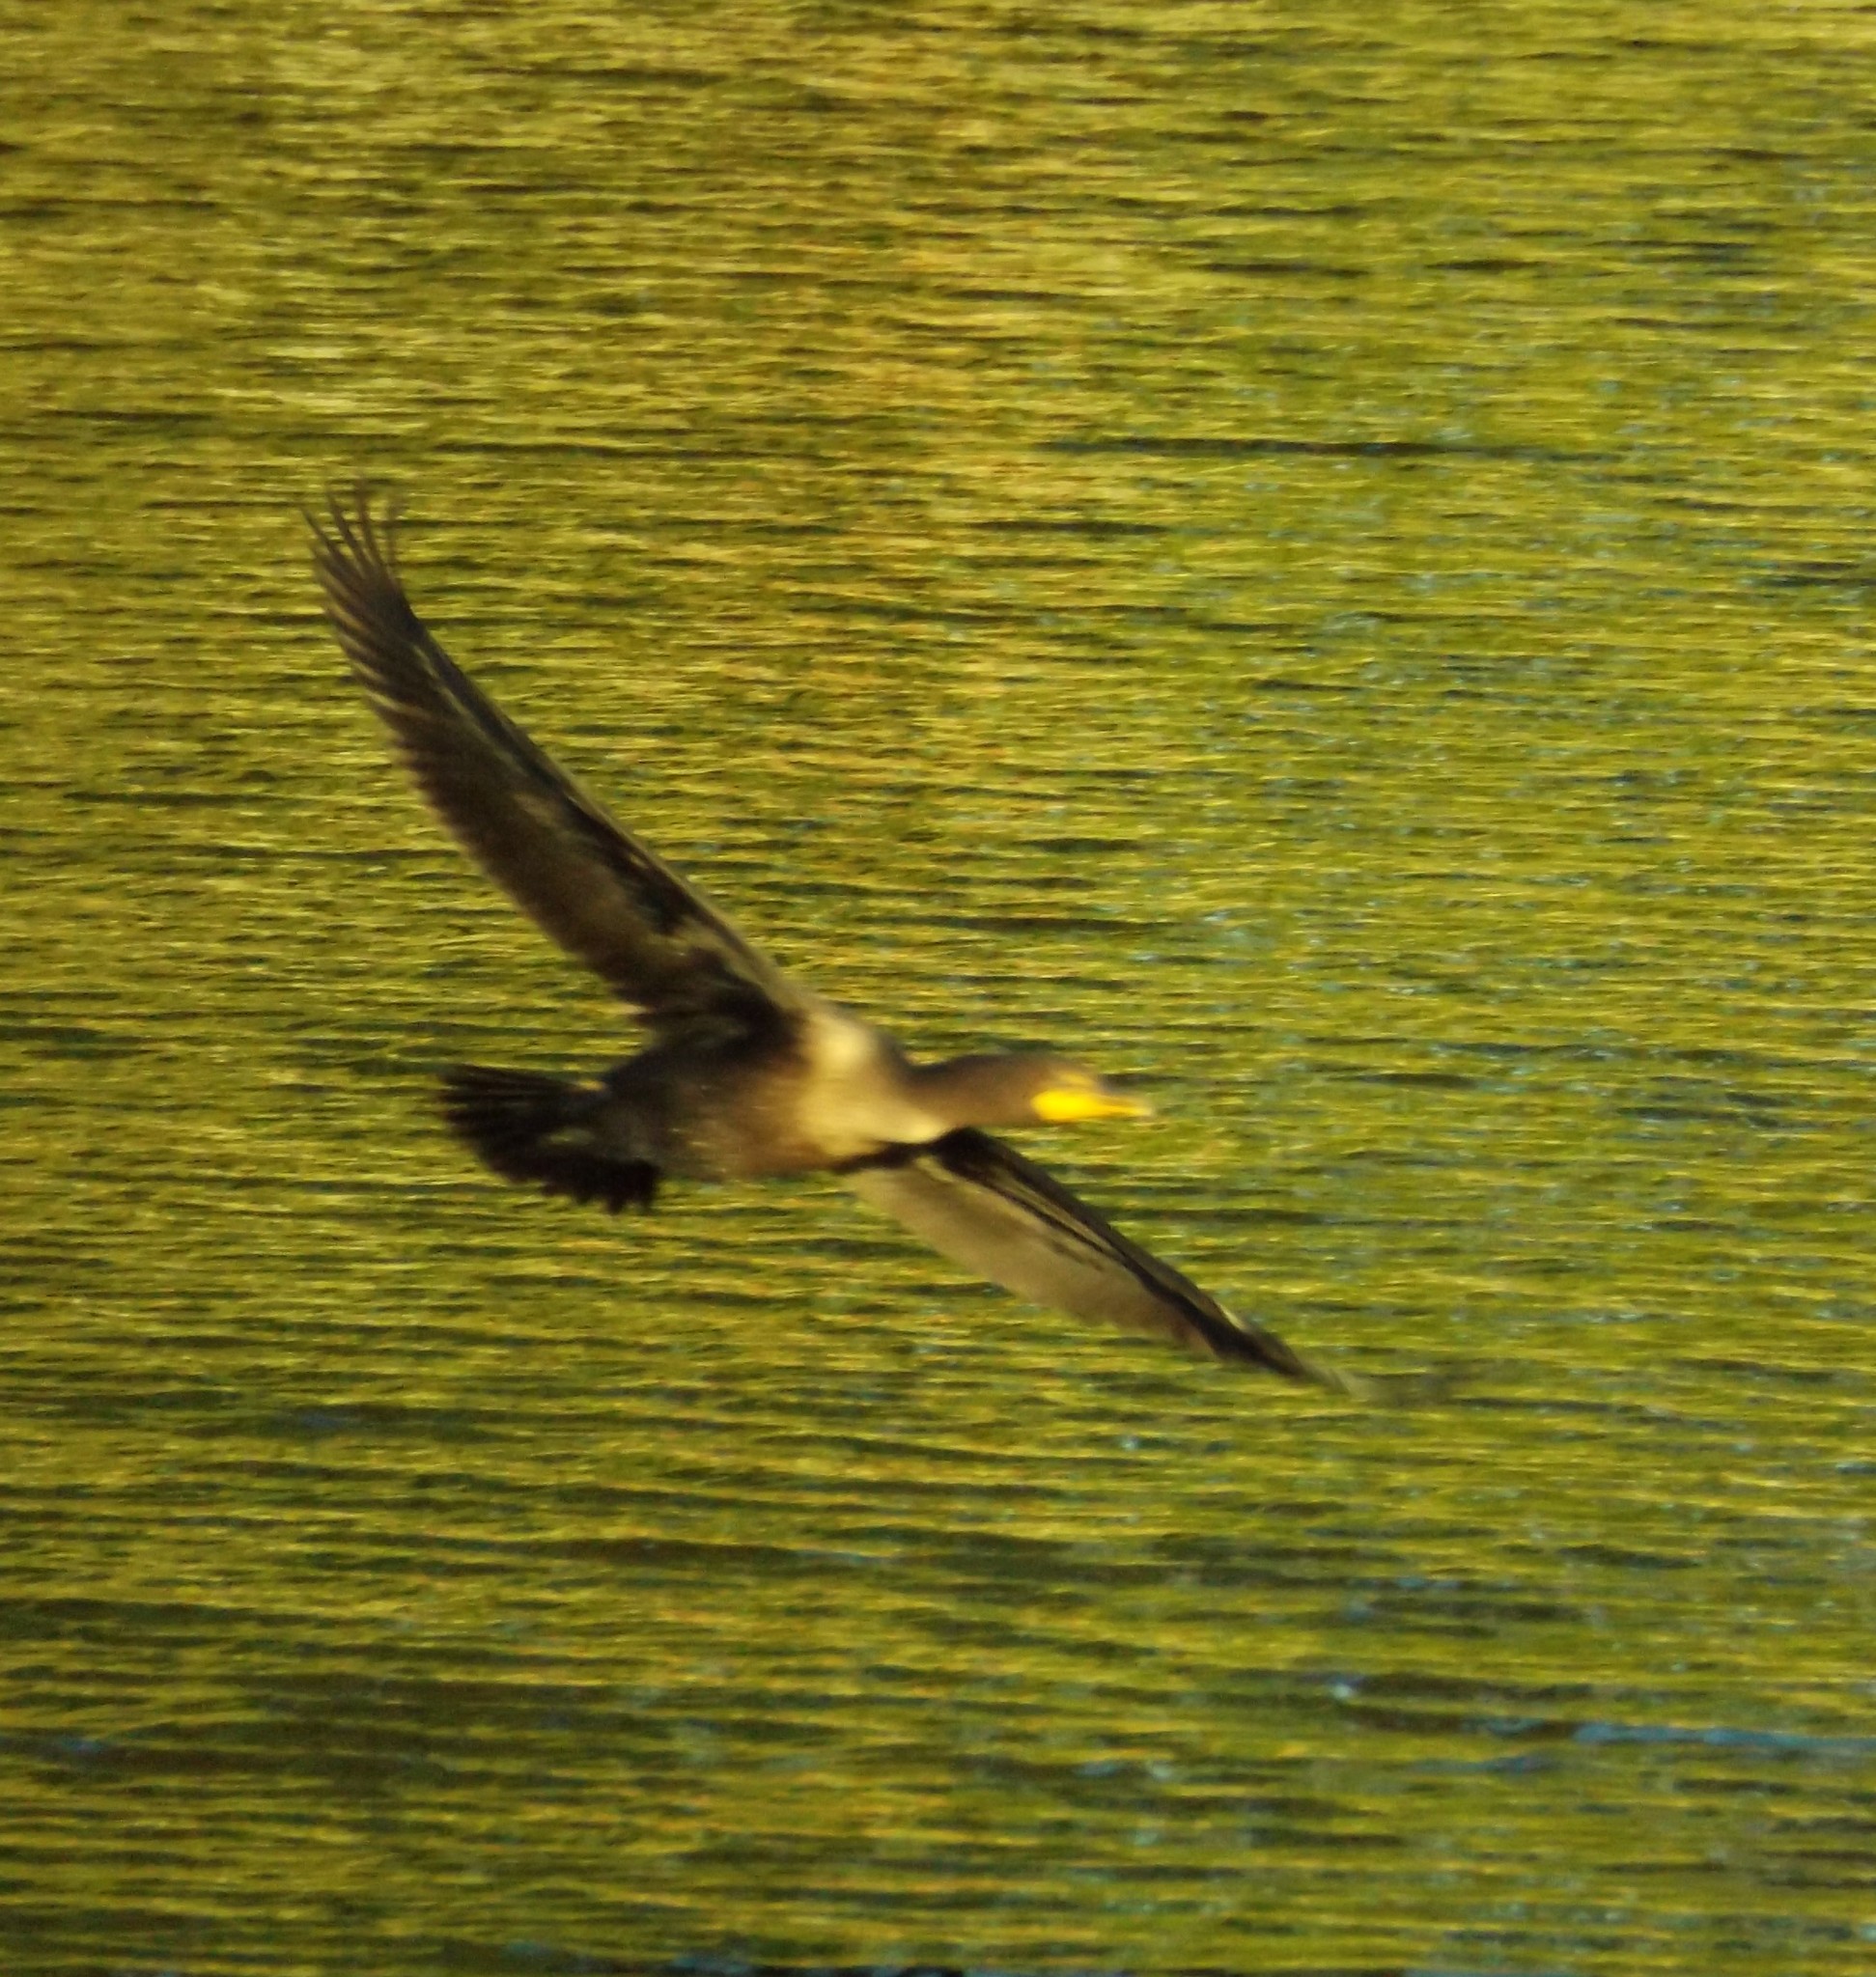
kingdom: Animalia
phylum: Chordata
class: Aves
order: Suliformes
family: Phalacrocoracidae
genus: Phalacrocorax
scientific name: Phalacrocorax auritus
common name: Double-crested cormorant
